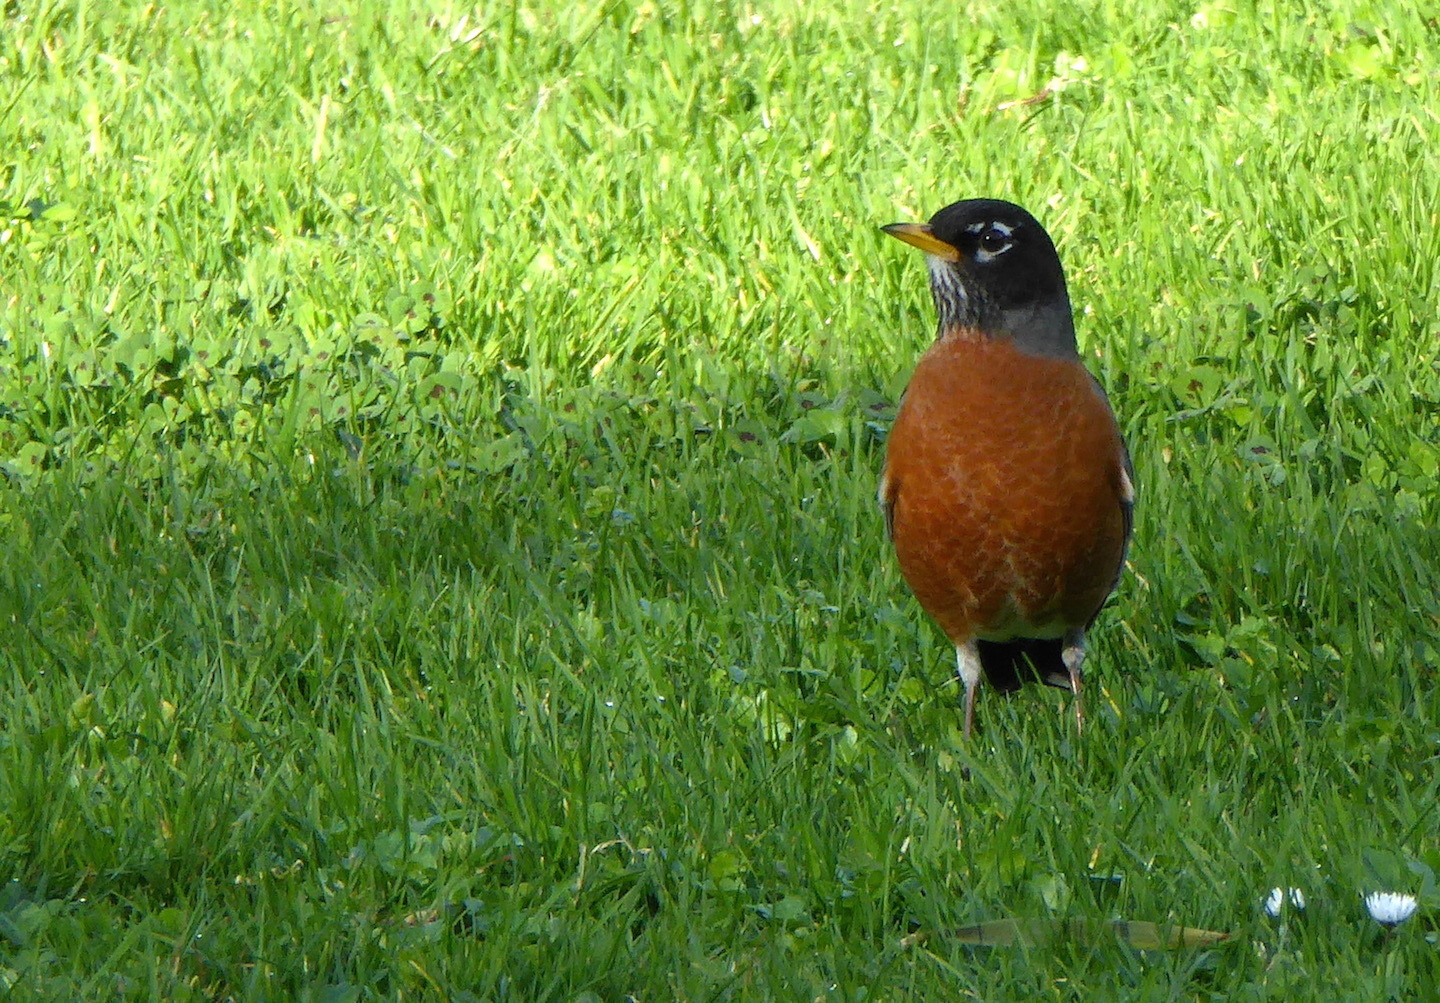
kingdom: Animalia
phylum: Chordata
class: Aves
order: Passeriformes
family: Turdidae
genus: Turdus
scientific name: Turdus migratorius
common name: American robin
